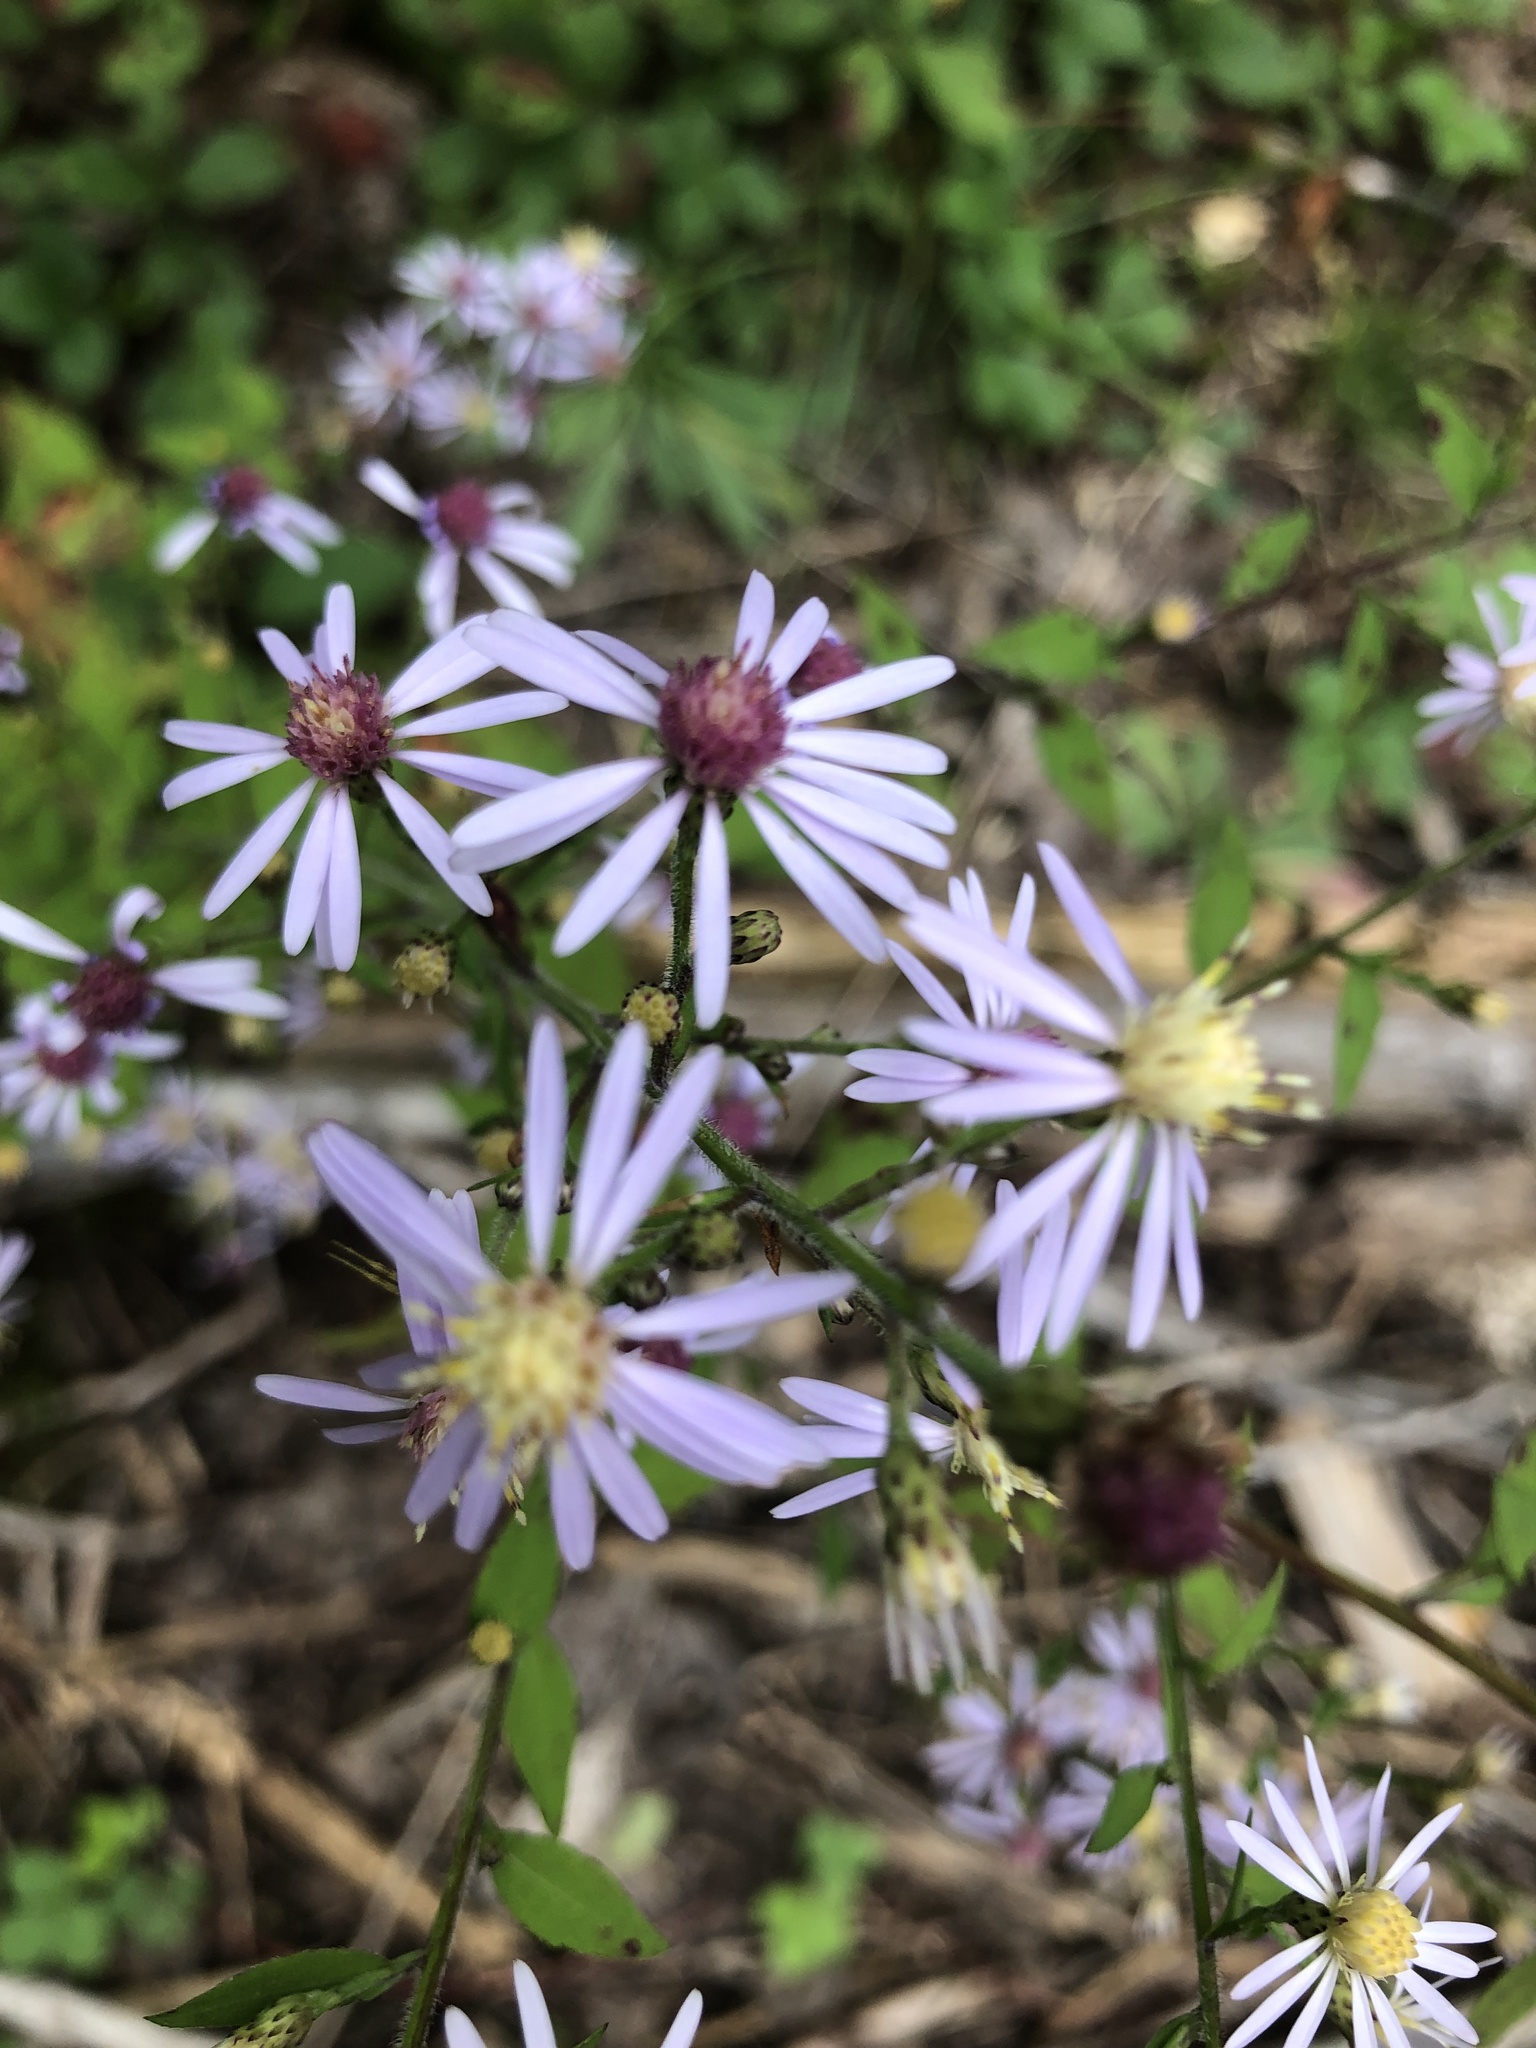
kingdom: Plantae
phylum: Tracheophyta
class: Magnoliopsida
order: Asterales
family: Asteraceae
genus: Symphyotrichum
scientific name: Symphyotrichum cordifolium
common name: Beeweed
